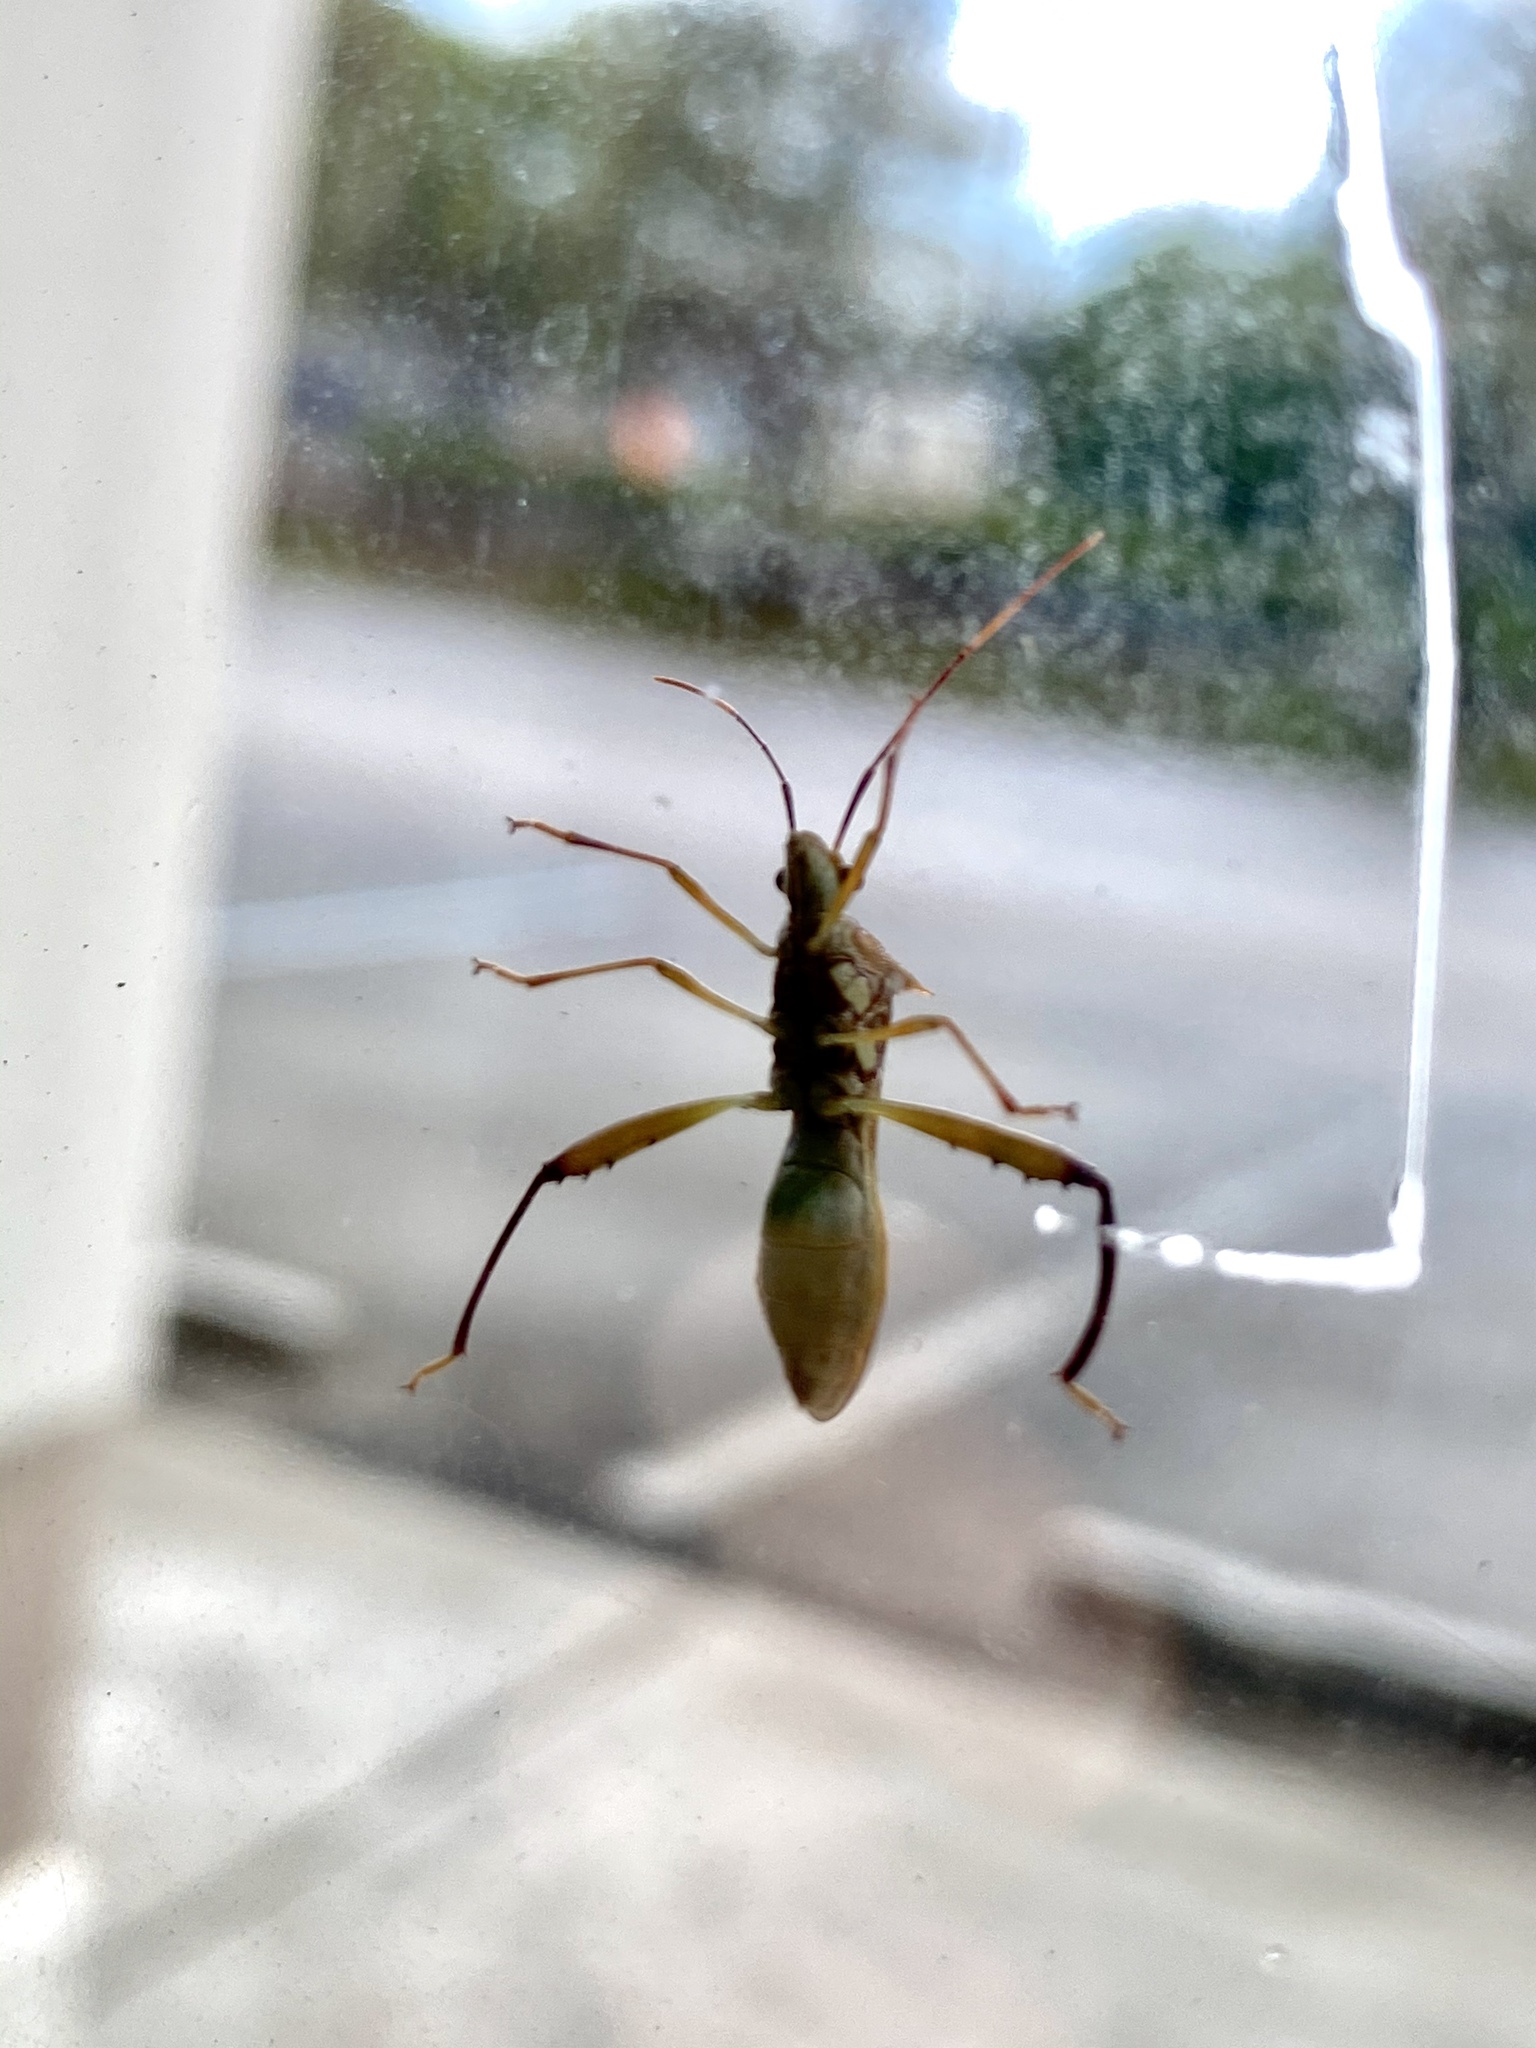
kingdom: Animalia
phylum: Arthropoda
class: Insecta
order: Hemiptera
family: Alydidae
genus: Hyalymenus
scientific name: Hyalymenus longispinus
